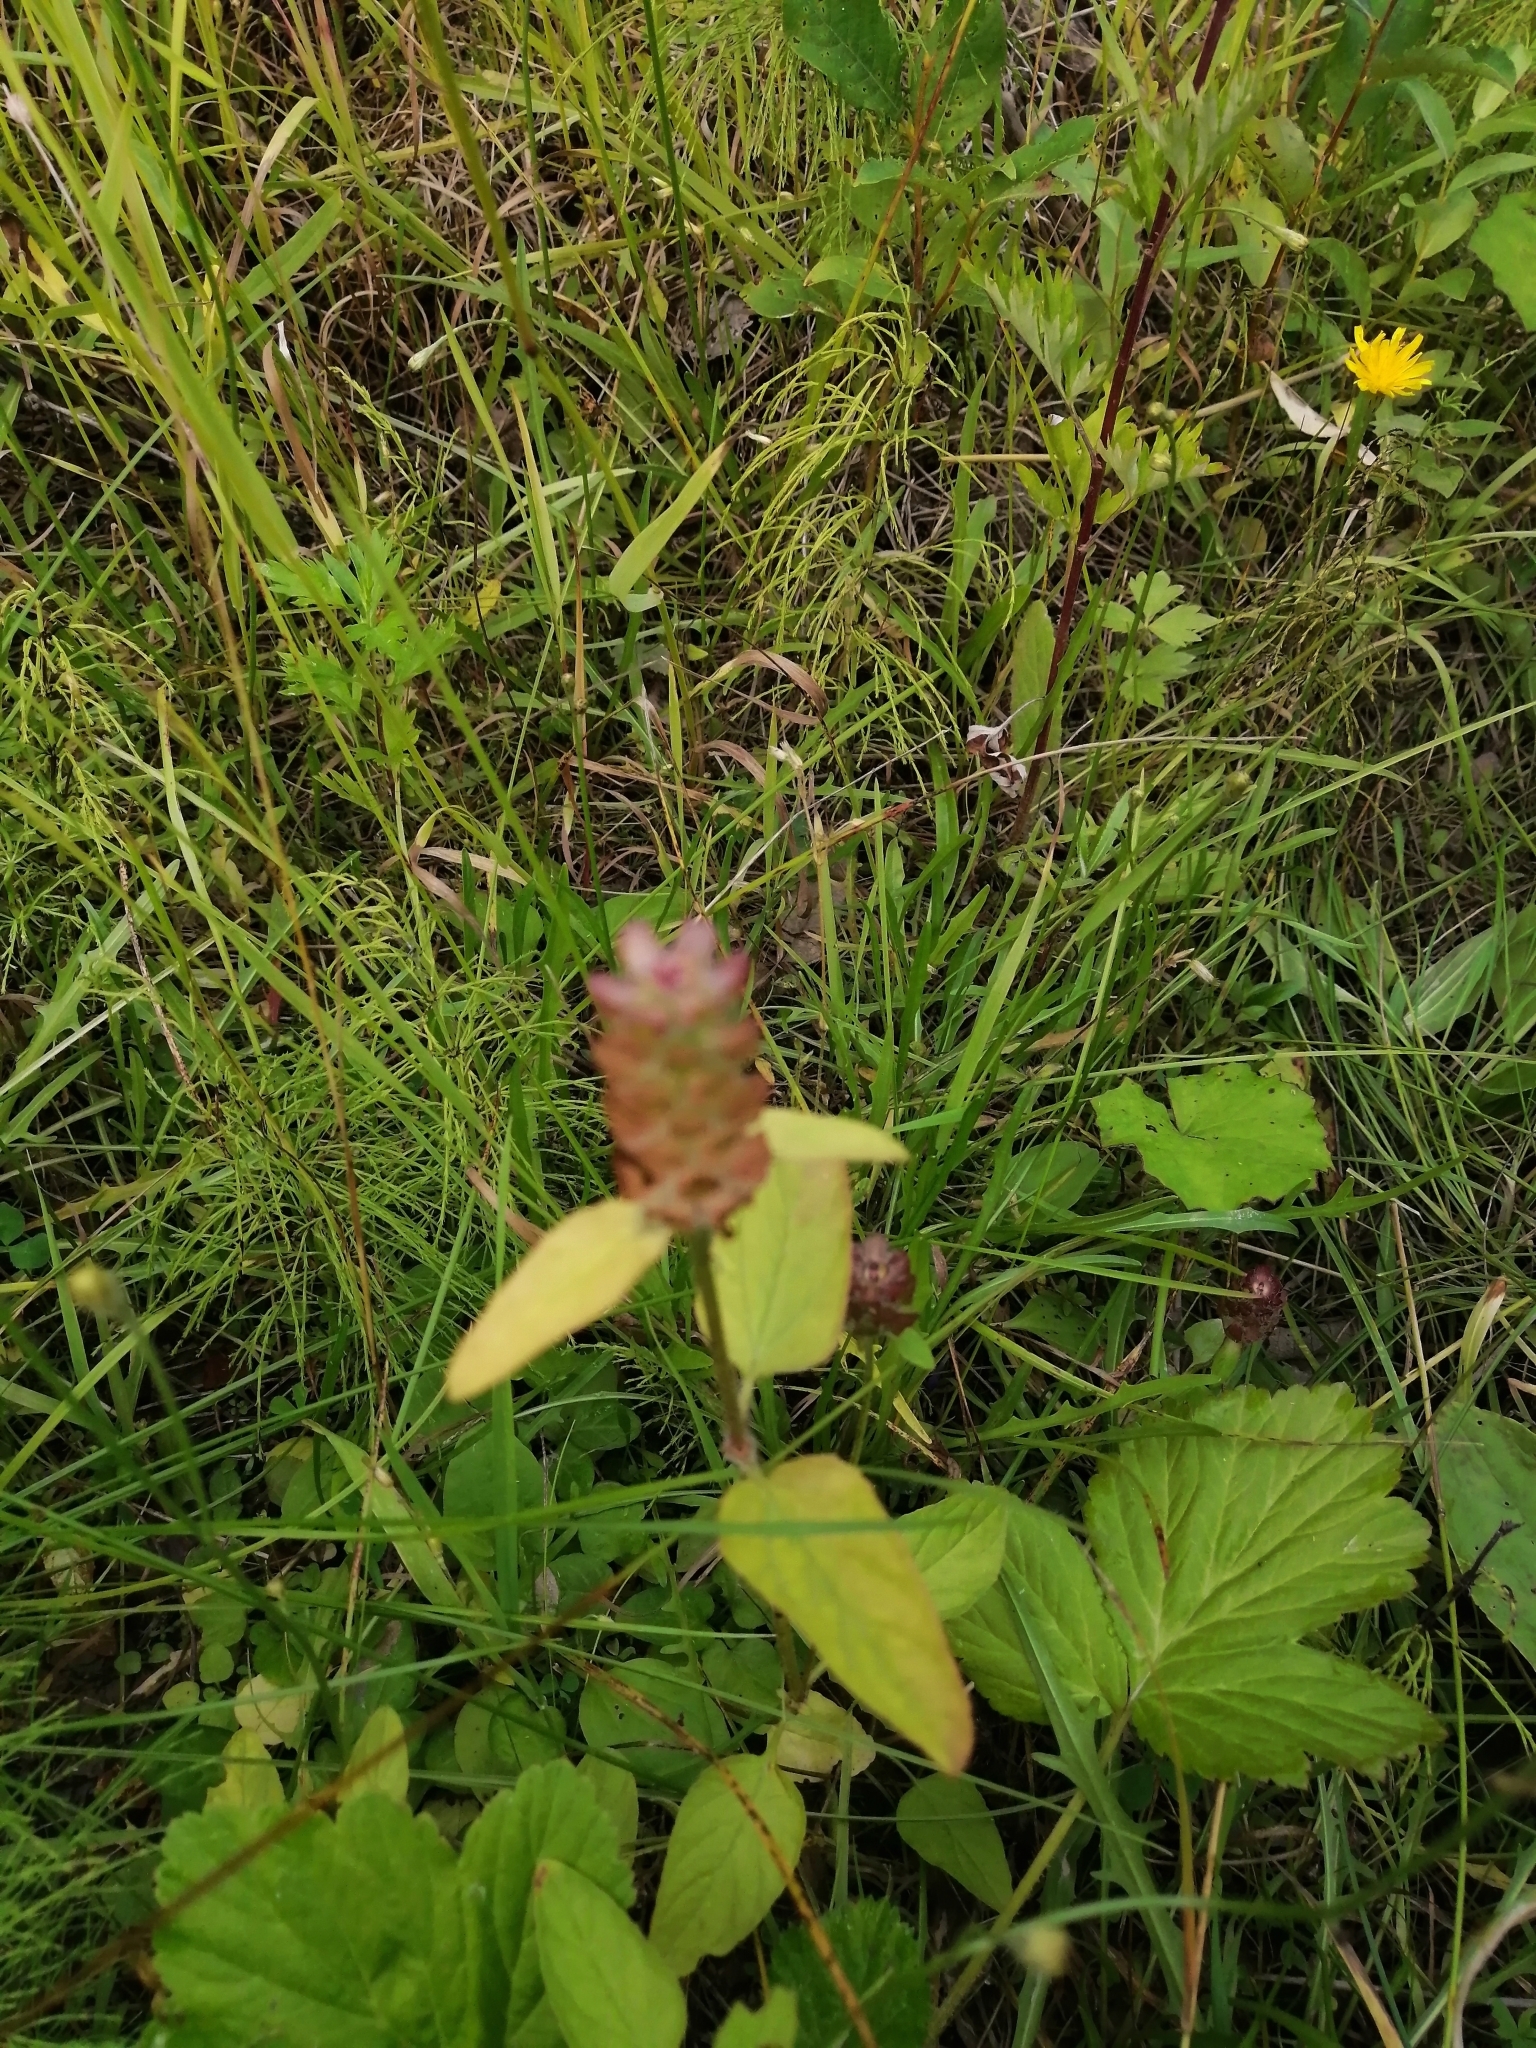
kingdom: Plantae
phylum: Tracheophyta
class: Magnoliopsida
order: Lamiales
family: Lamiaceae
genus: Prunella
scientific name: Prunella vulgaris
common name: Heal-all
